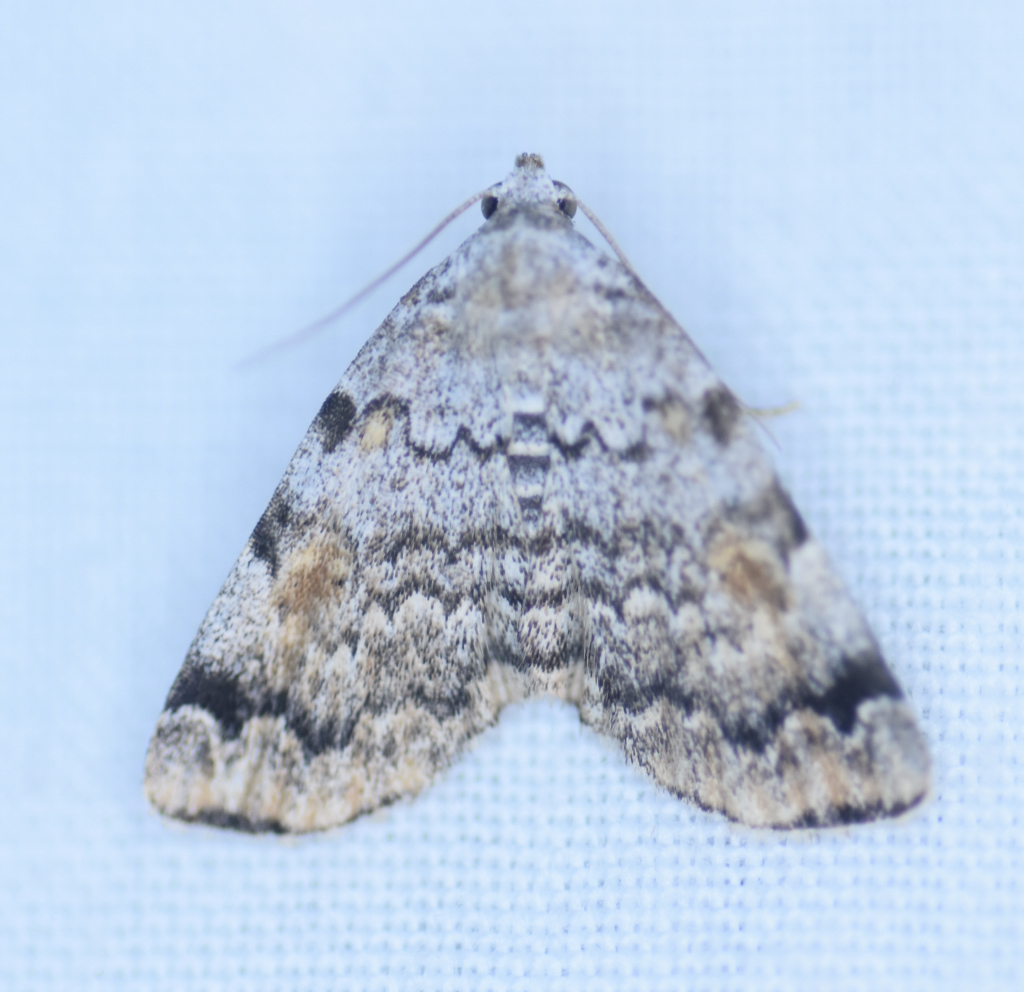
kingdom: Animalia
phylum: Arthropoda
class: Insecta
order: Lepidoptera
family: Erebidae
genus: Idia
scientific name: Idia americalis
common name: American idia moth
